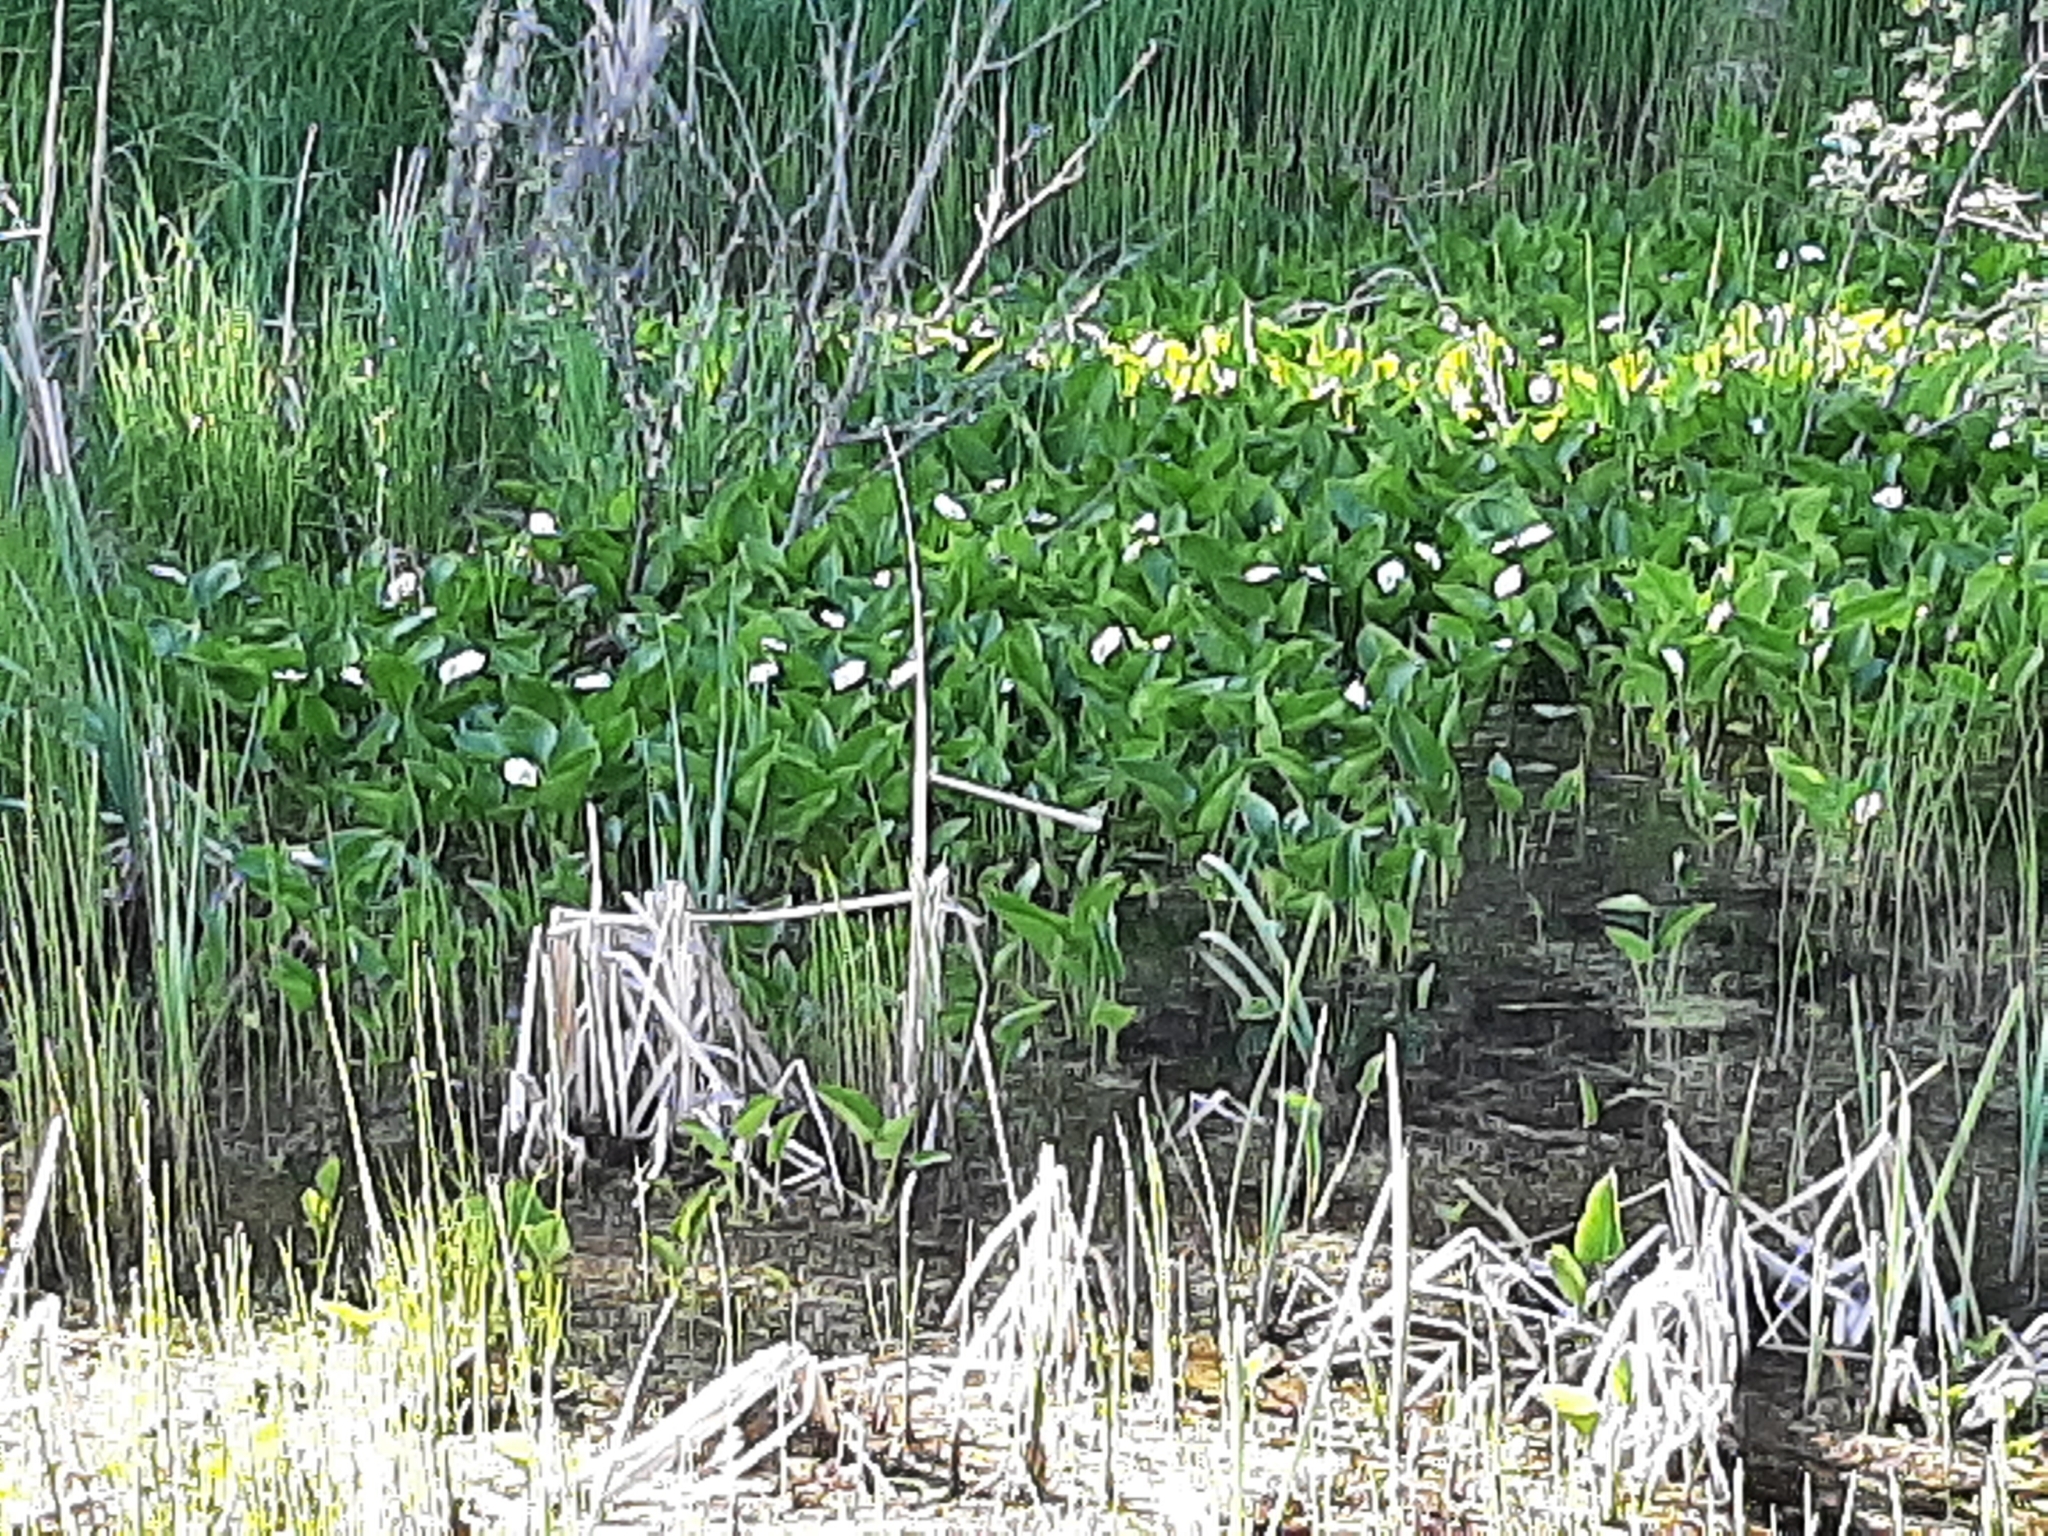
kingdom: Plantae
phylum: Tracheophyta
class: Liliopsida
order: Alismatales
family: Araceae
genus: Calla
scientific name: Calla palustris
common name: Bog arum
